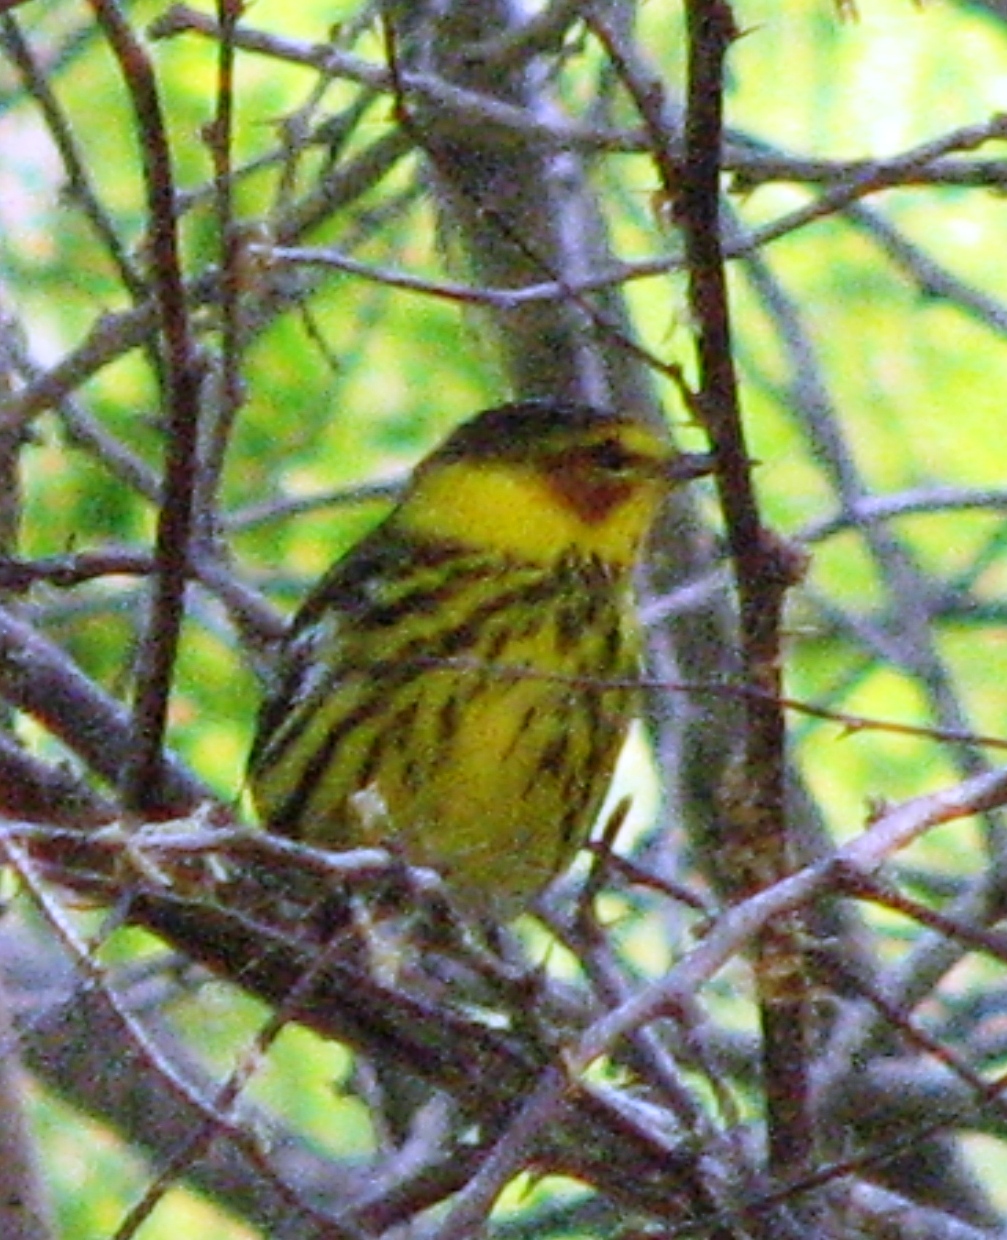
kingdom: Animalia
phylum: Chordata
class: Aves
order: Passeriformes
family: Parulidae
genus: Setophaga
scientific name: Setophaga tigrina
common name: Cape may warbler
